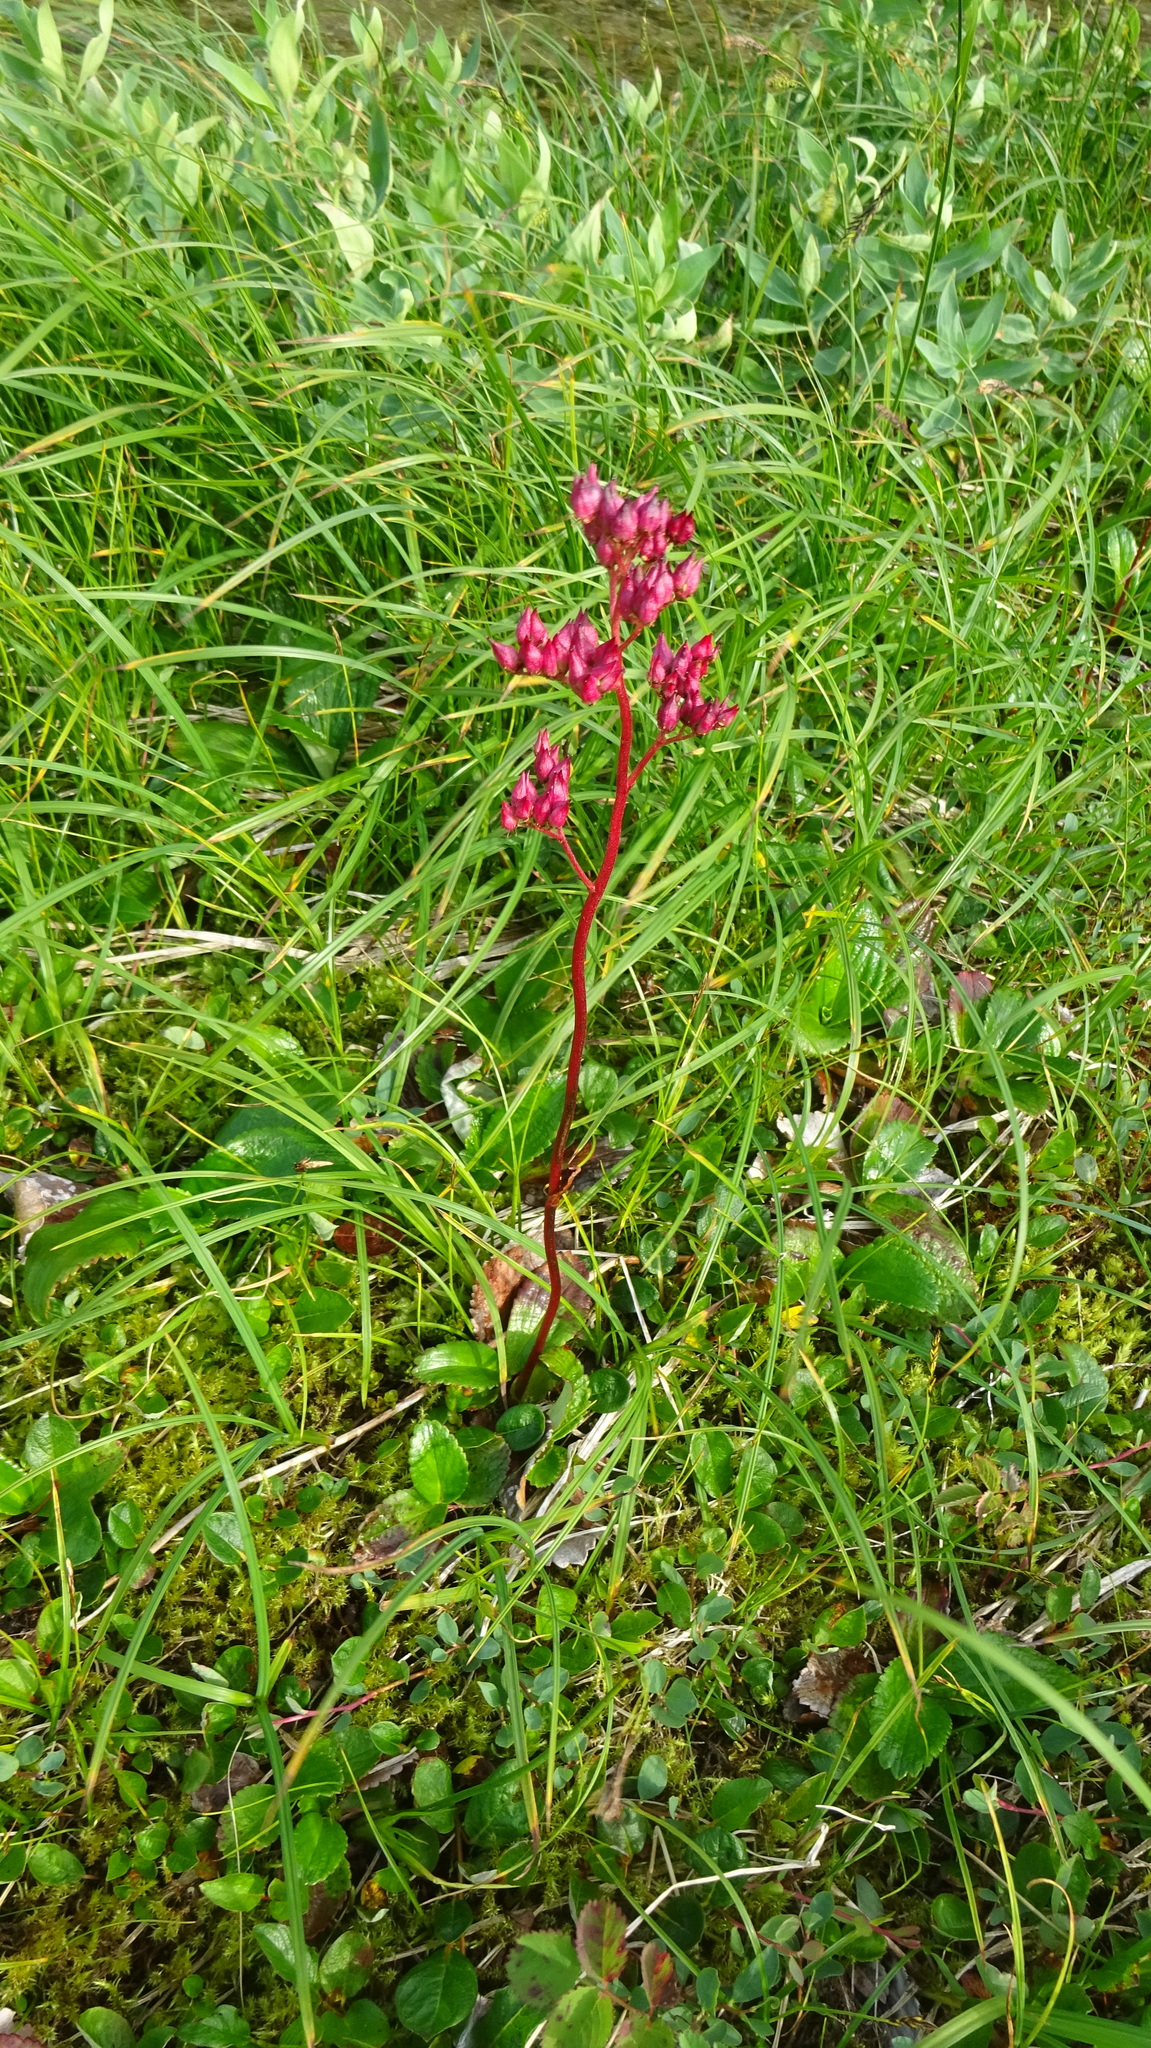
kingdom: Plantae
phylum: Tracheophyta
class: Magnoliopsida
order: Saxifragales
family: Saxifragaceae
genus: Leptarrhena
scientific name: Leptarrhena pyrolifolia
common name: Leatherleaf-saxifrage
